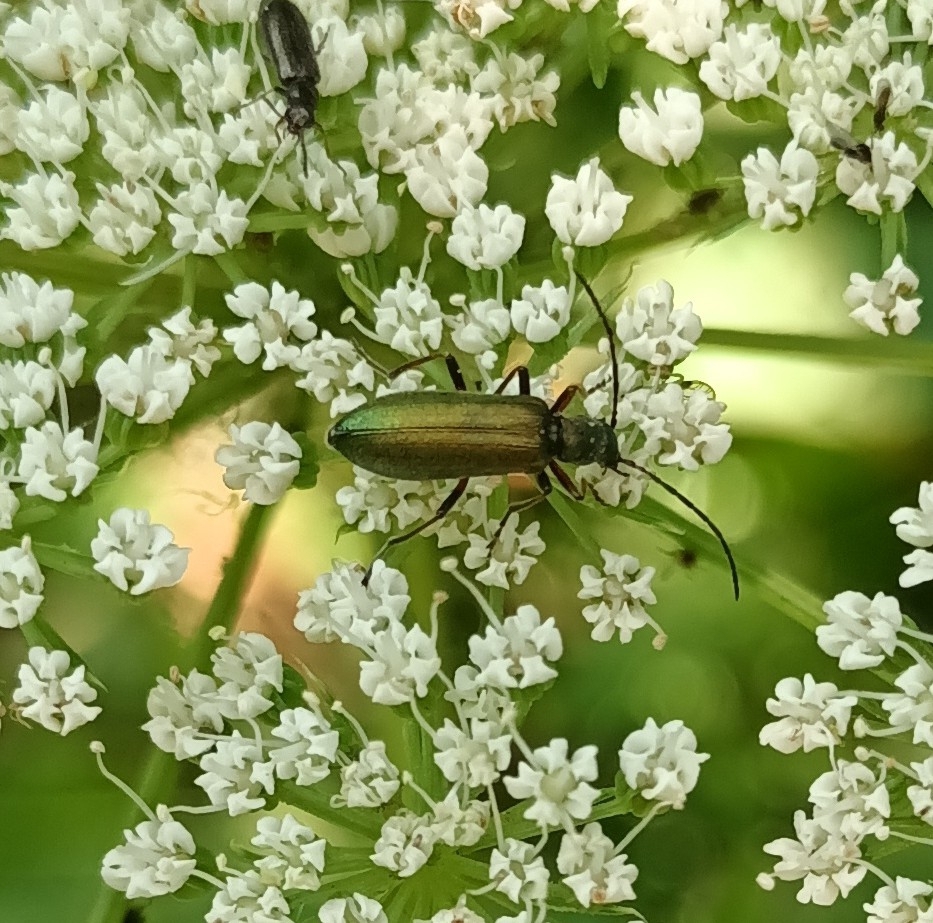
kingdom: Animalia
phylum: Arthropoda
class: Insecta
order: Coleoptera
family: Oedemeridae
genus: Chrysanthia
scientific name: Chrysanthia geniculata
